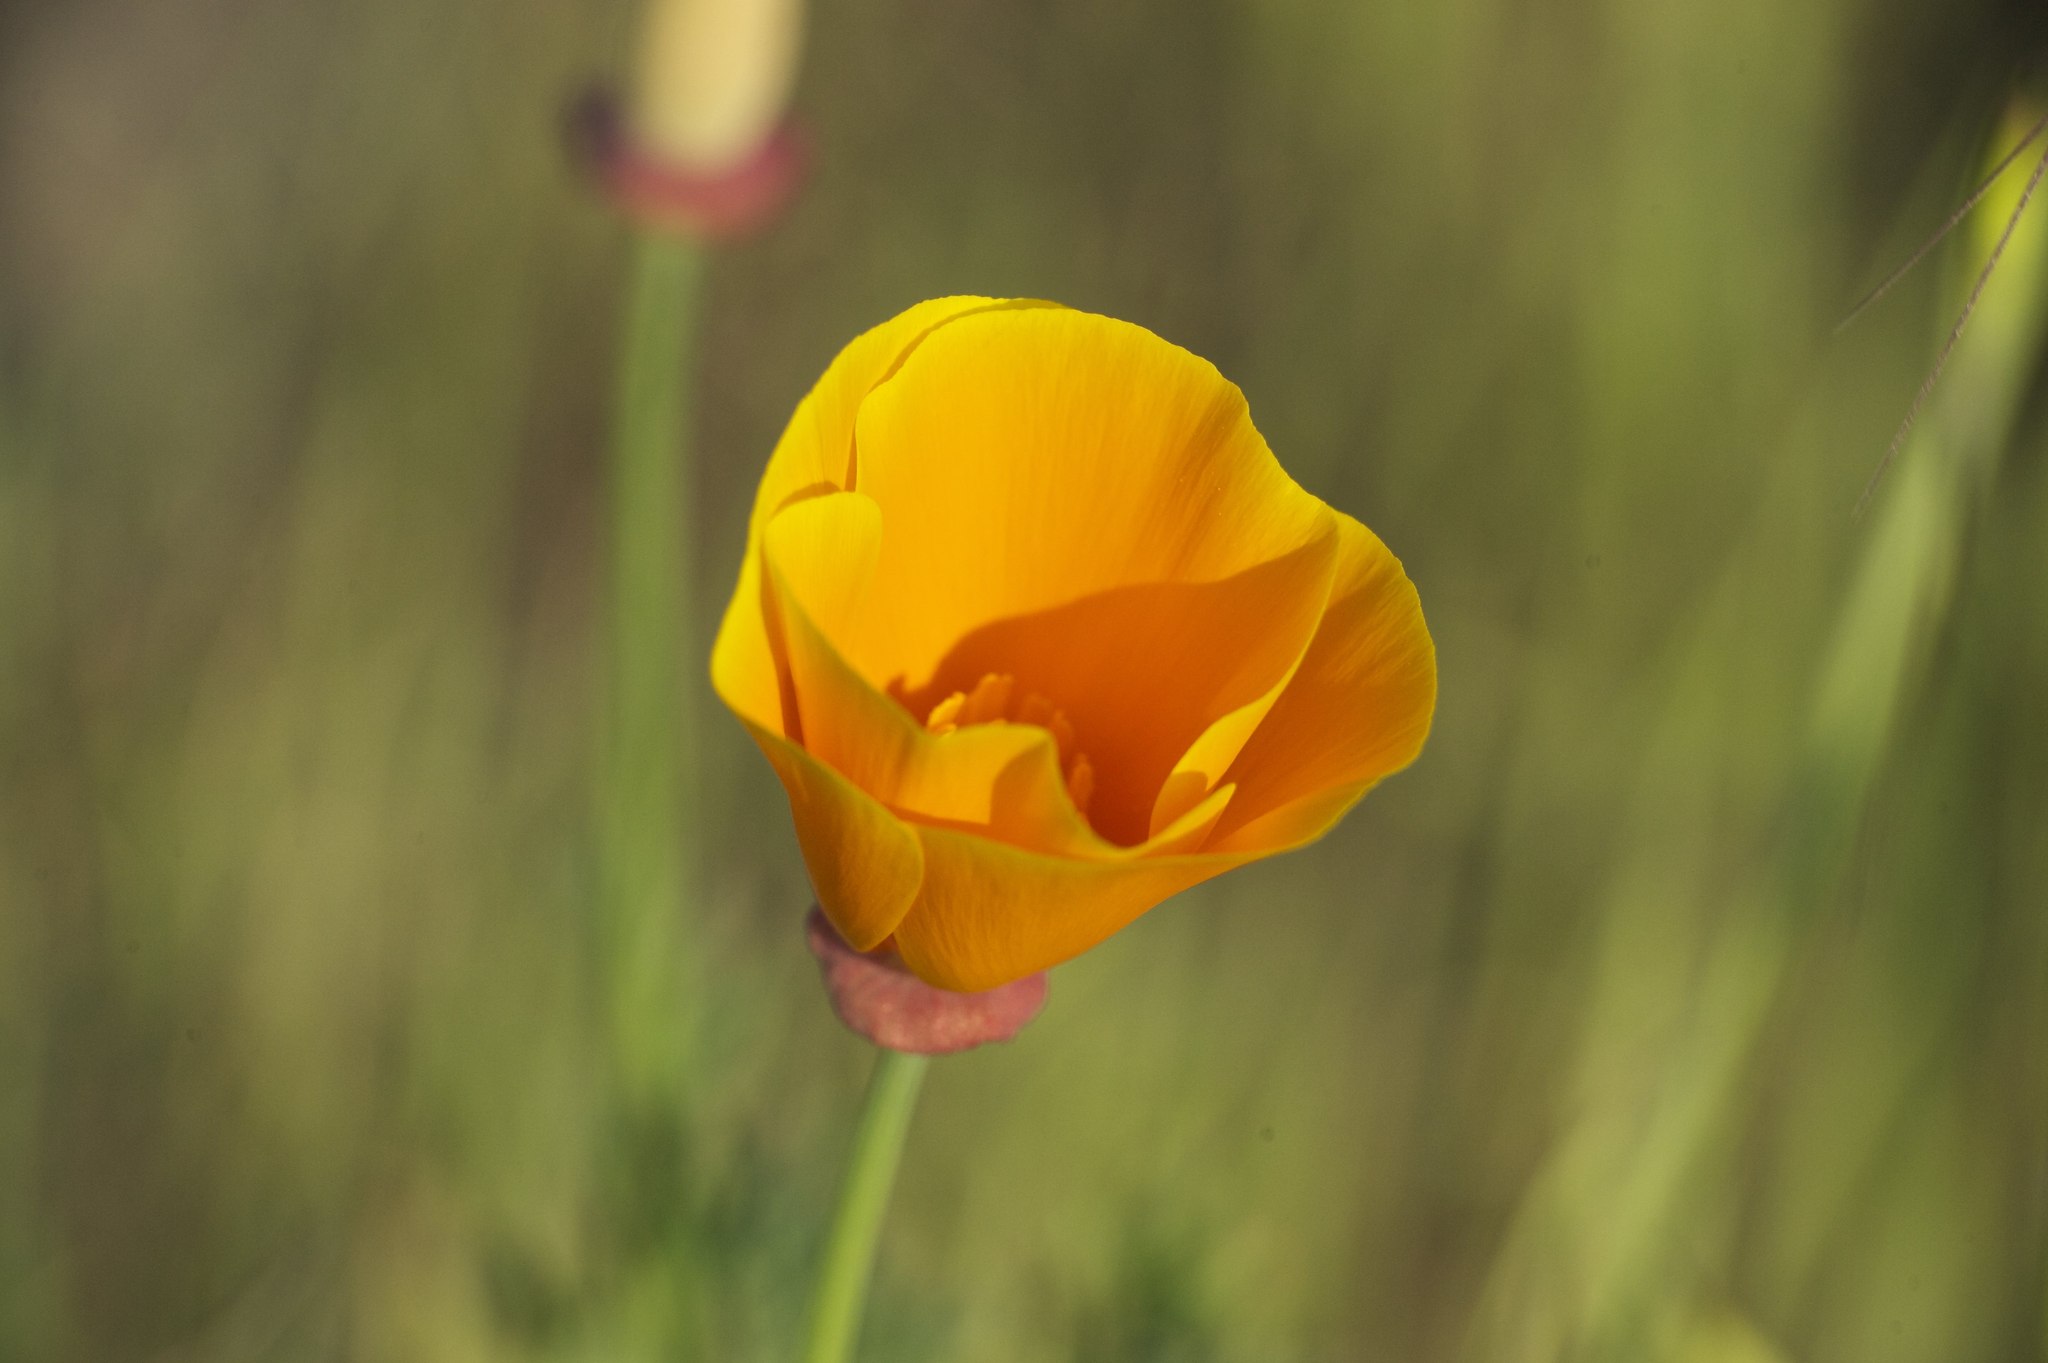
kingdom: Plantae
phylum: Tracheophyta
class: Magnoliopsida
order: Ranunculales
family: Papaveraceae
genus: Eschscholzia
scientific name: Eschscholzia californica
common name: California poppy
